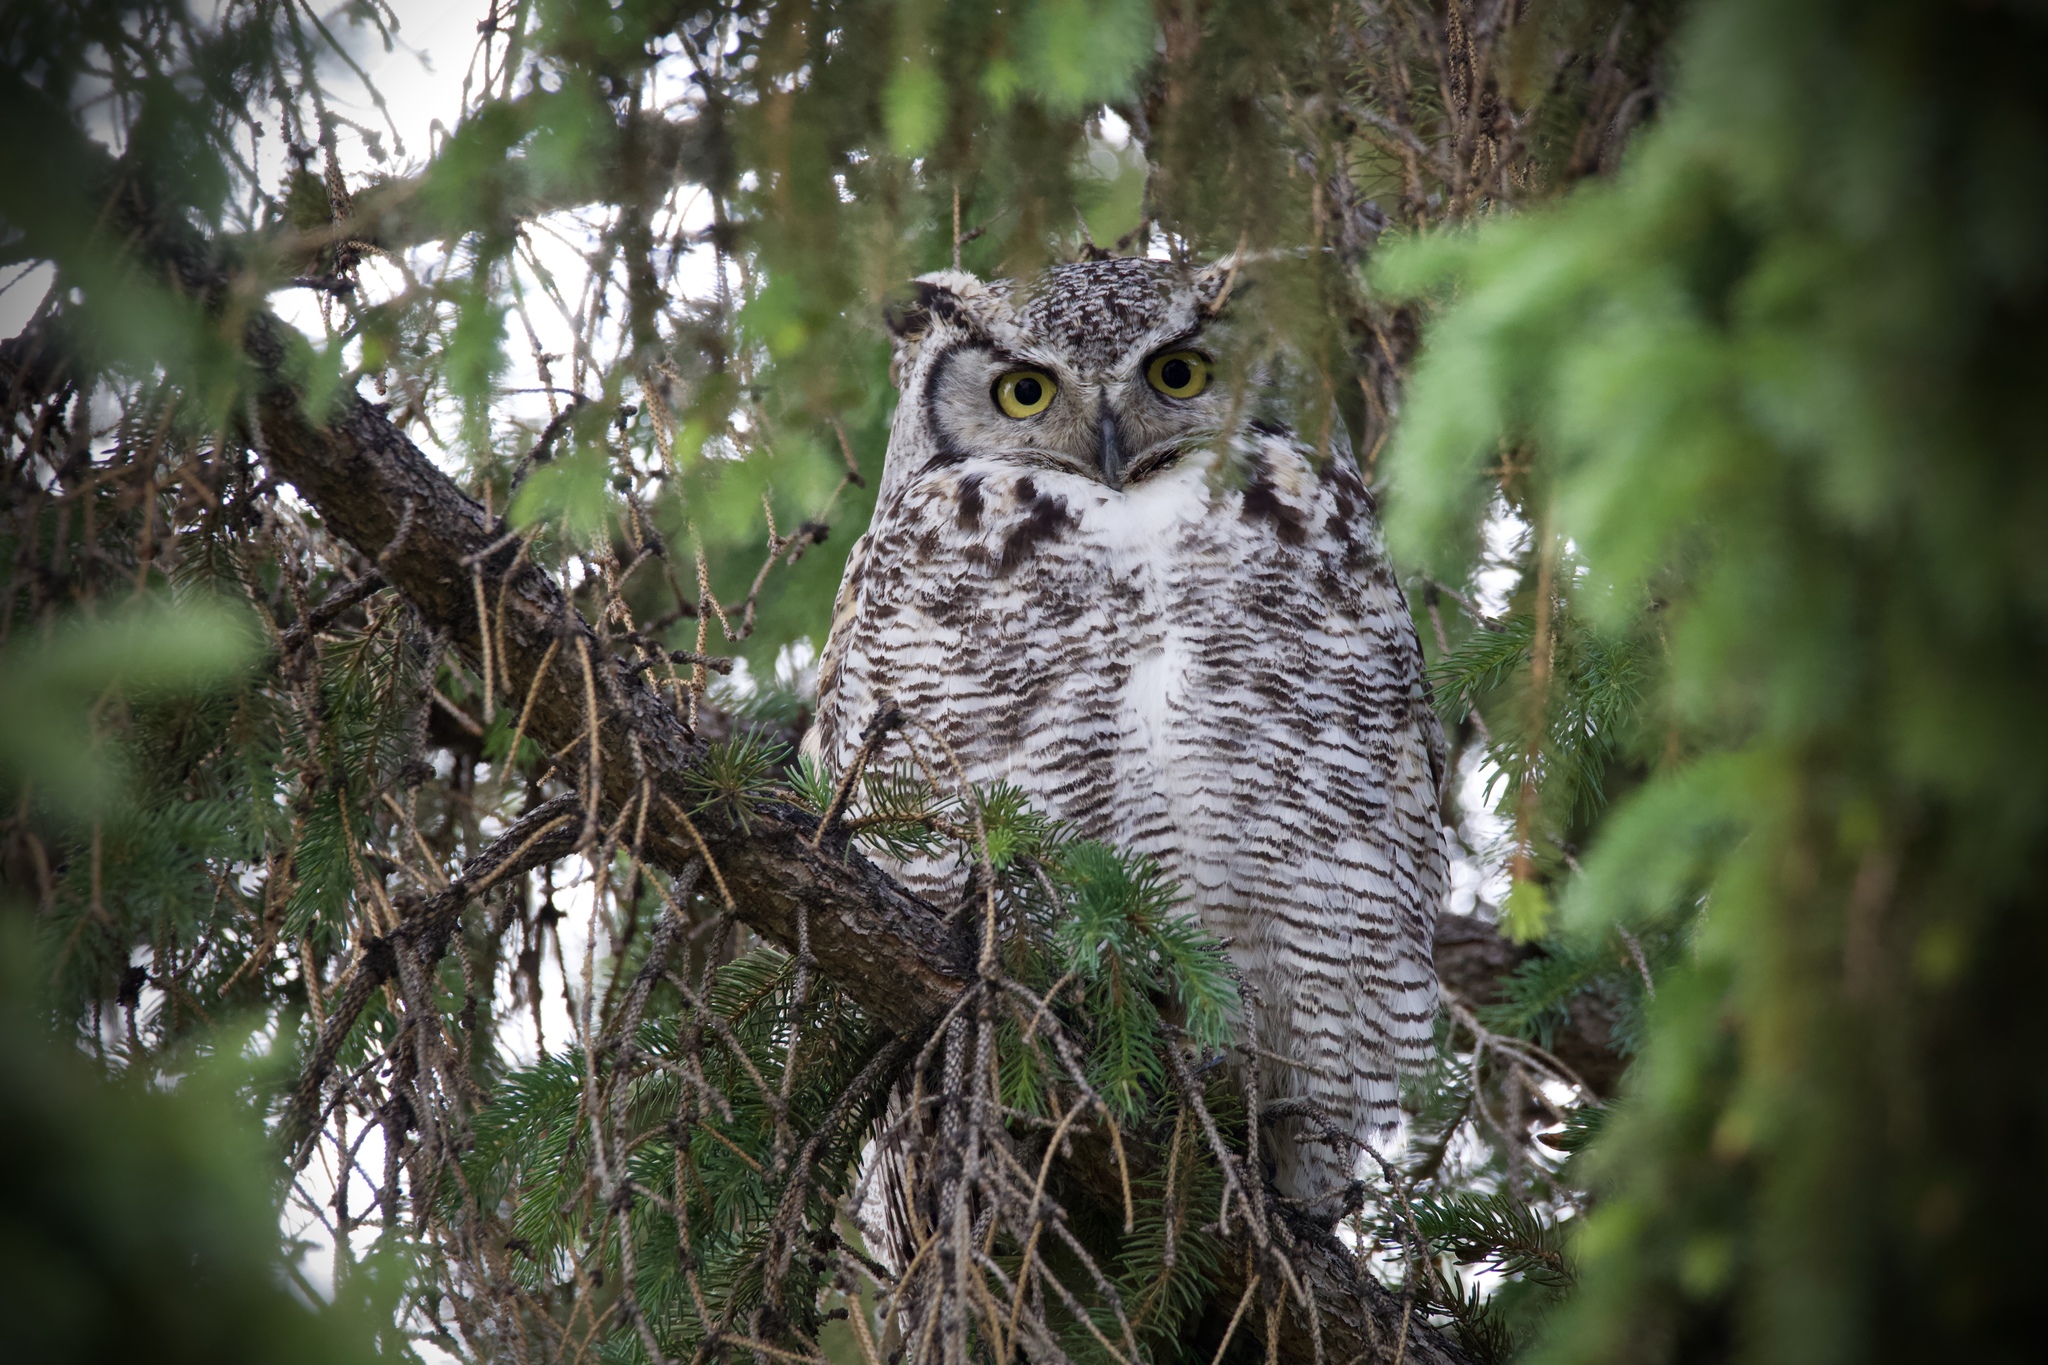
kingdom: Animalia
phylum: Chordata
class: Aves
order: Strigiformes
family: Strigidae
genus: Bubo
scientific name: Bubo virginianus
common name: Great horned owl
